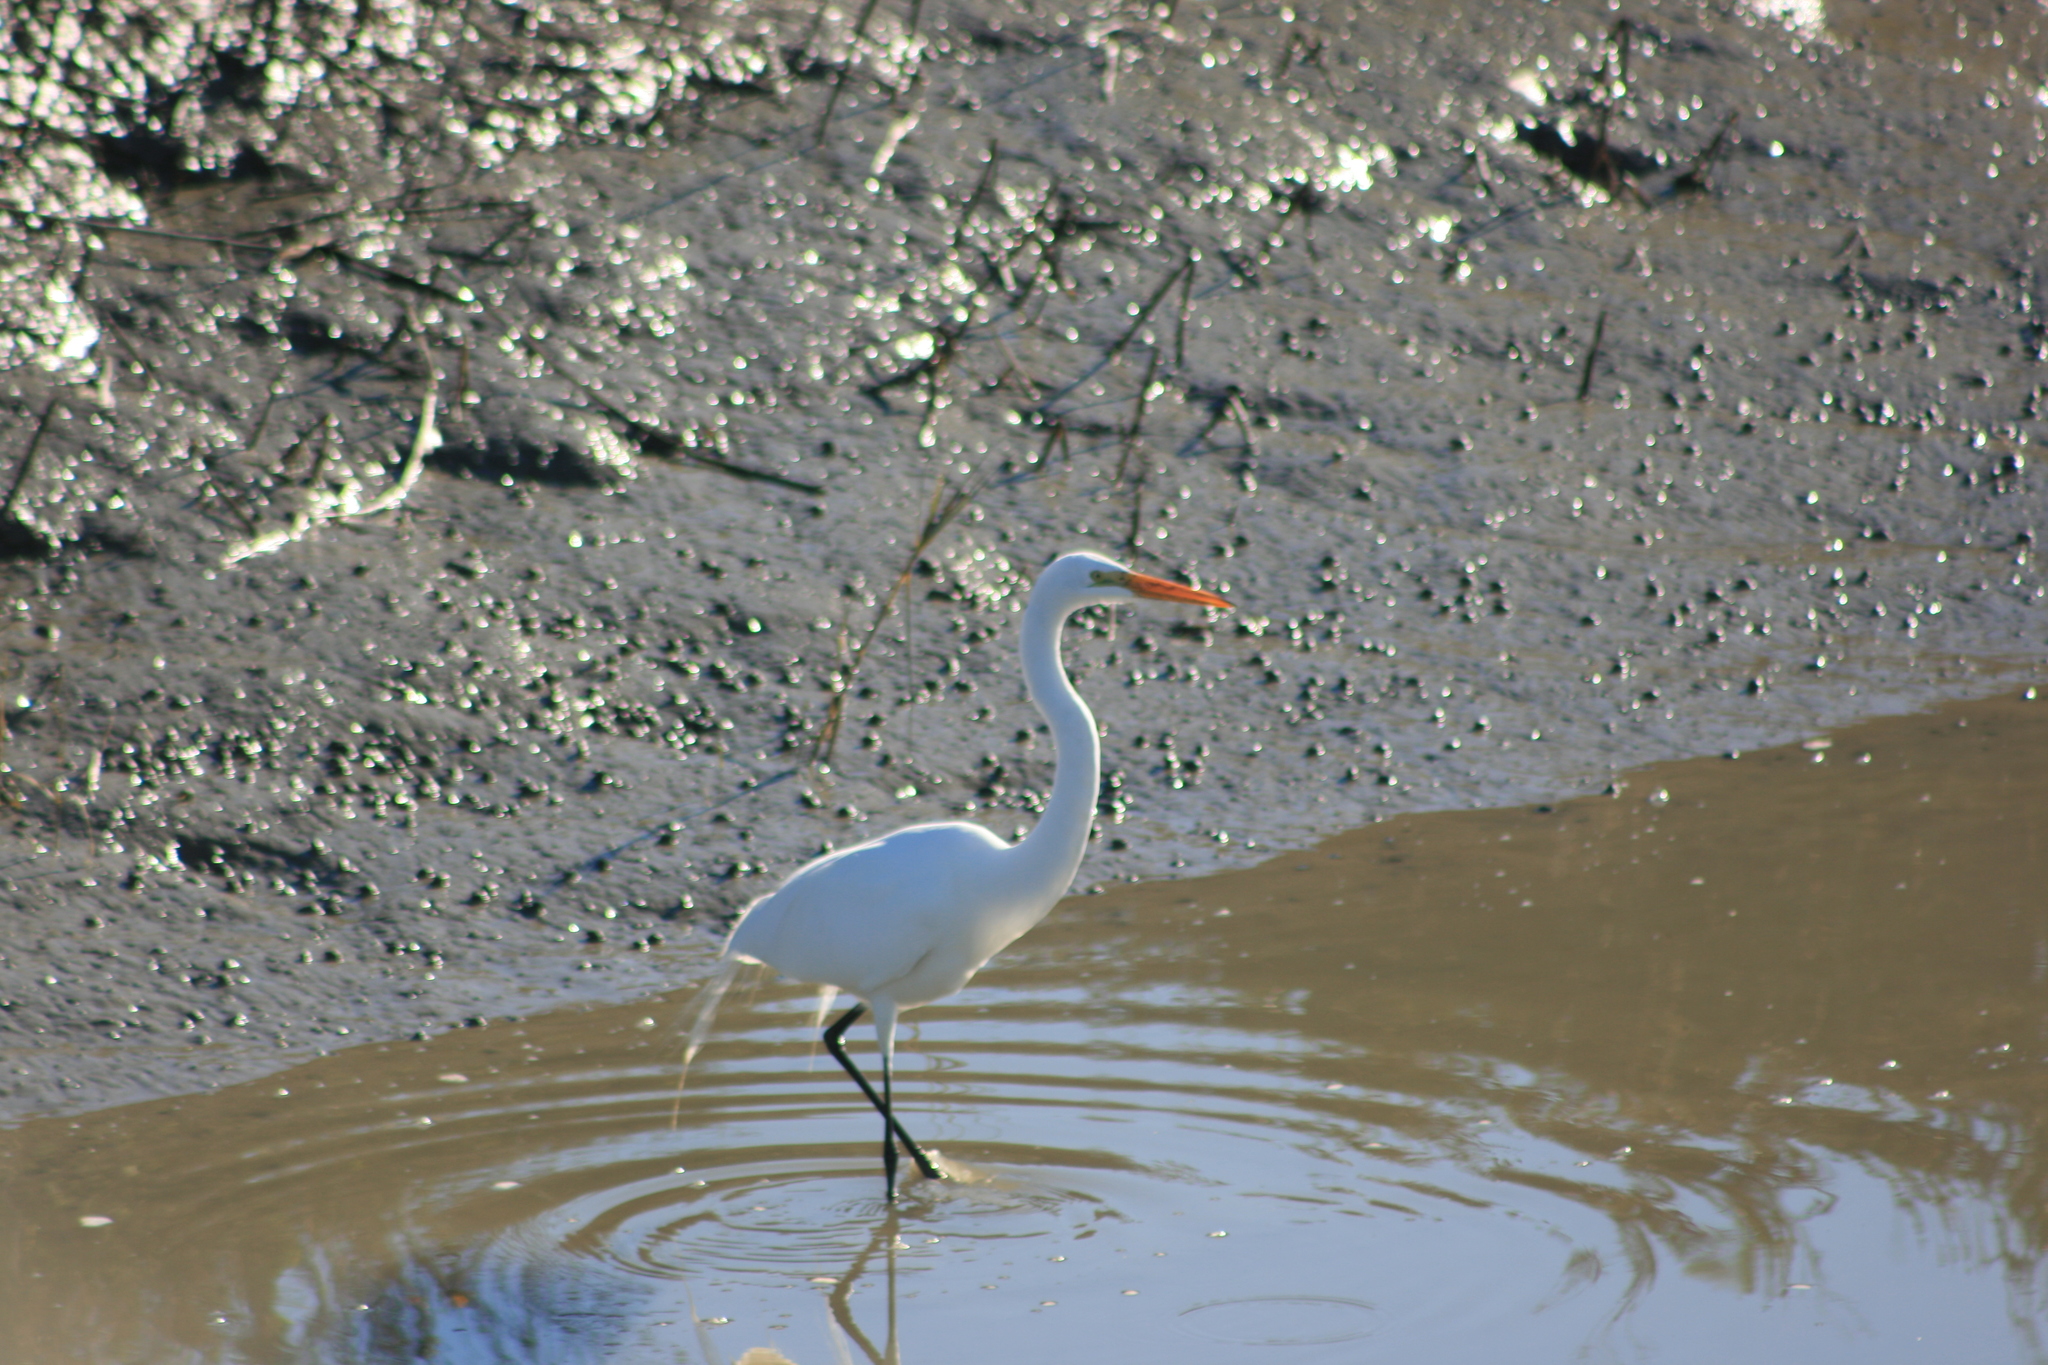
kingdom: Animalia
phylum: Chordata
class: Aves
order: Pelecaniformes
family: Ardeidae
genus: Ardea
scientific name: Ardea alba
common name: Great egret
